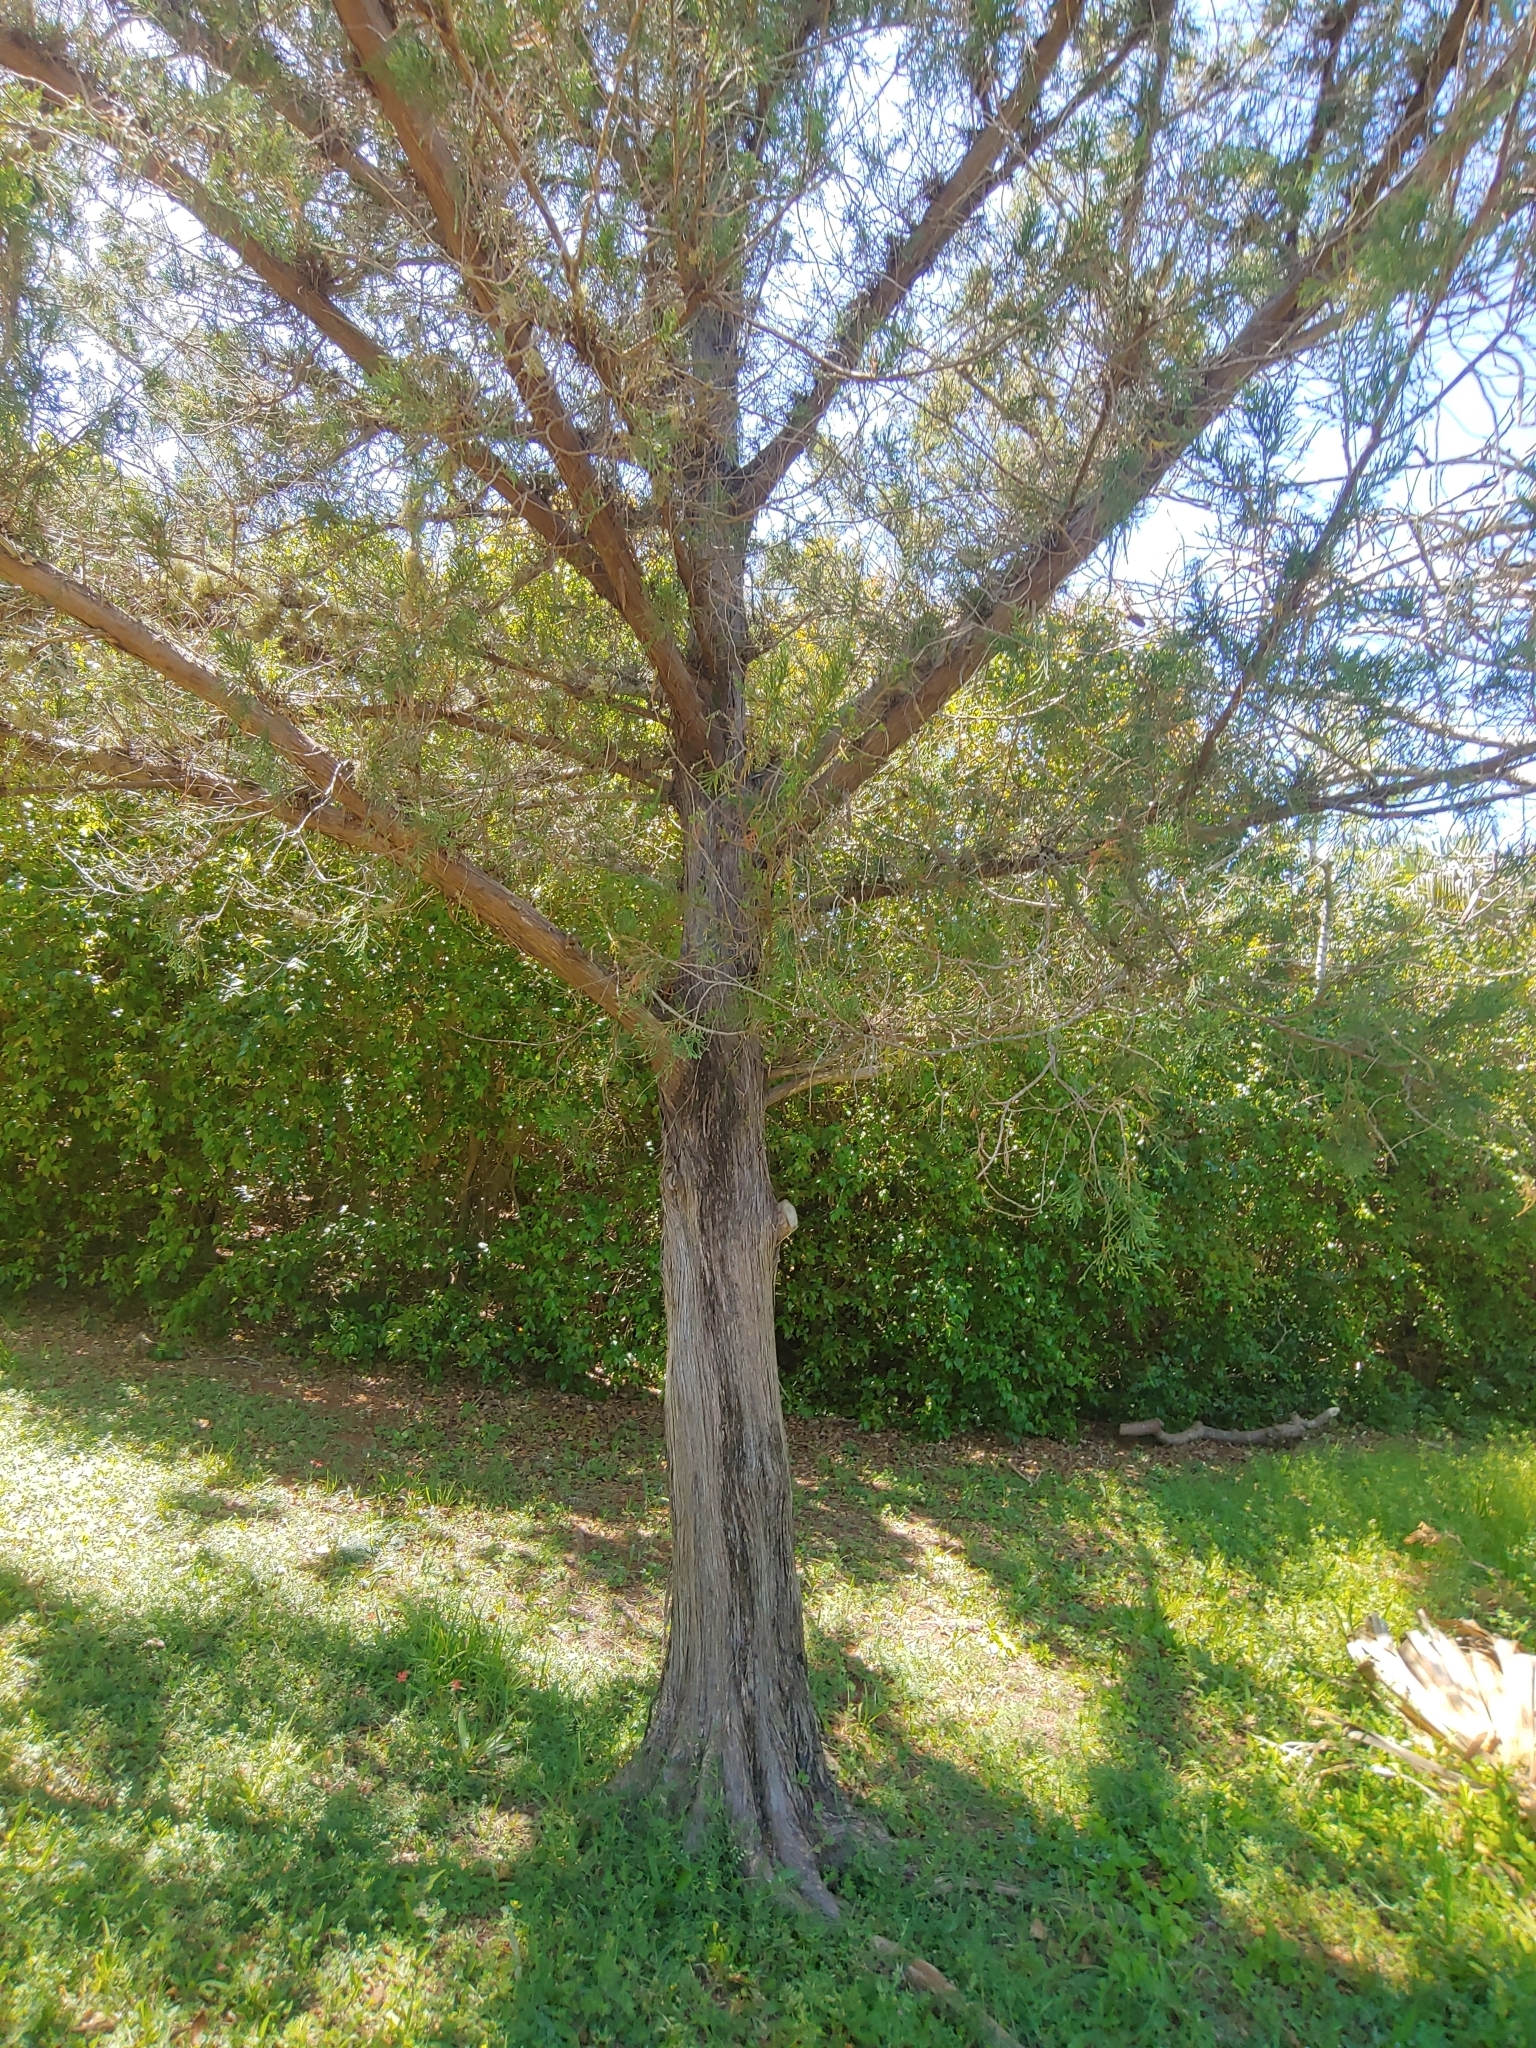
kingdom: Plantae
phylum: Tracheophyta
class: Pinopsida
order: Pinales
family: Cupressaceae
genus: Juniperus
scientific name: Juniperus bermudiana
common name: Bermuda juniper
